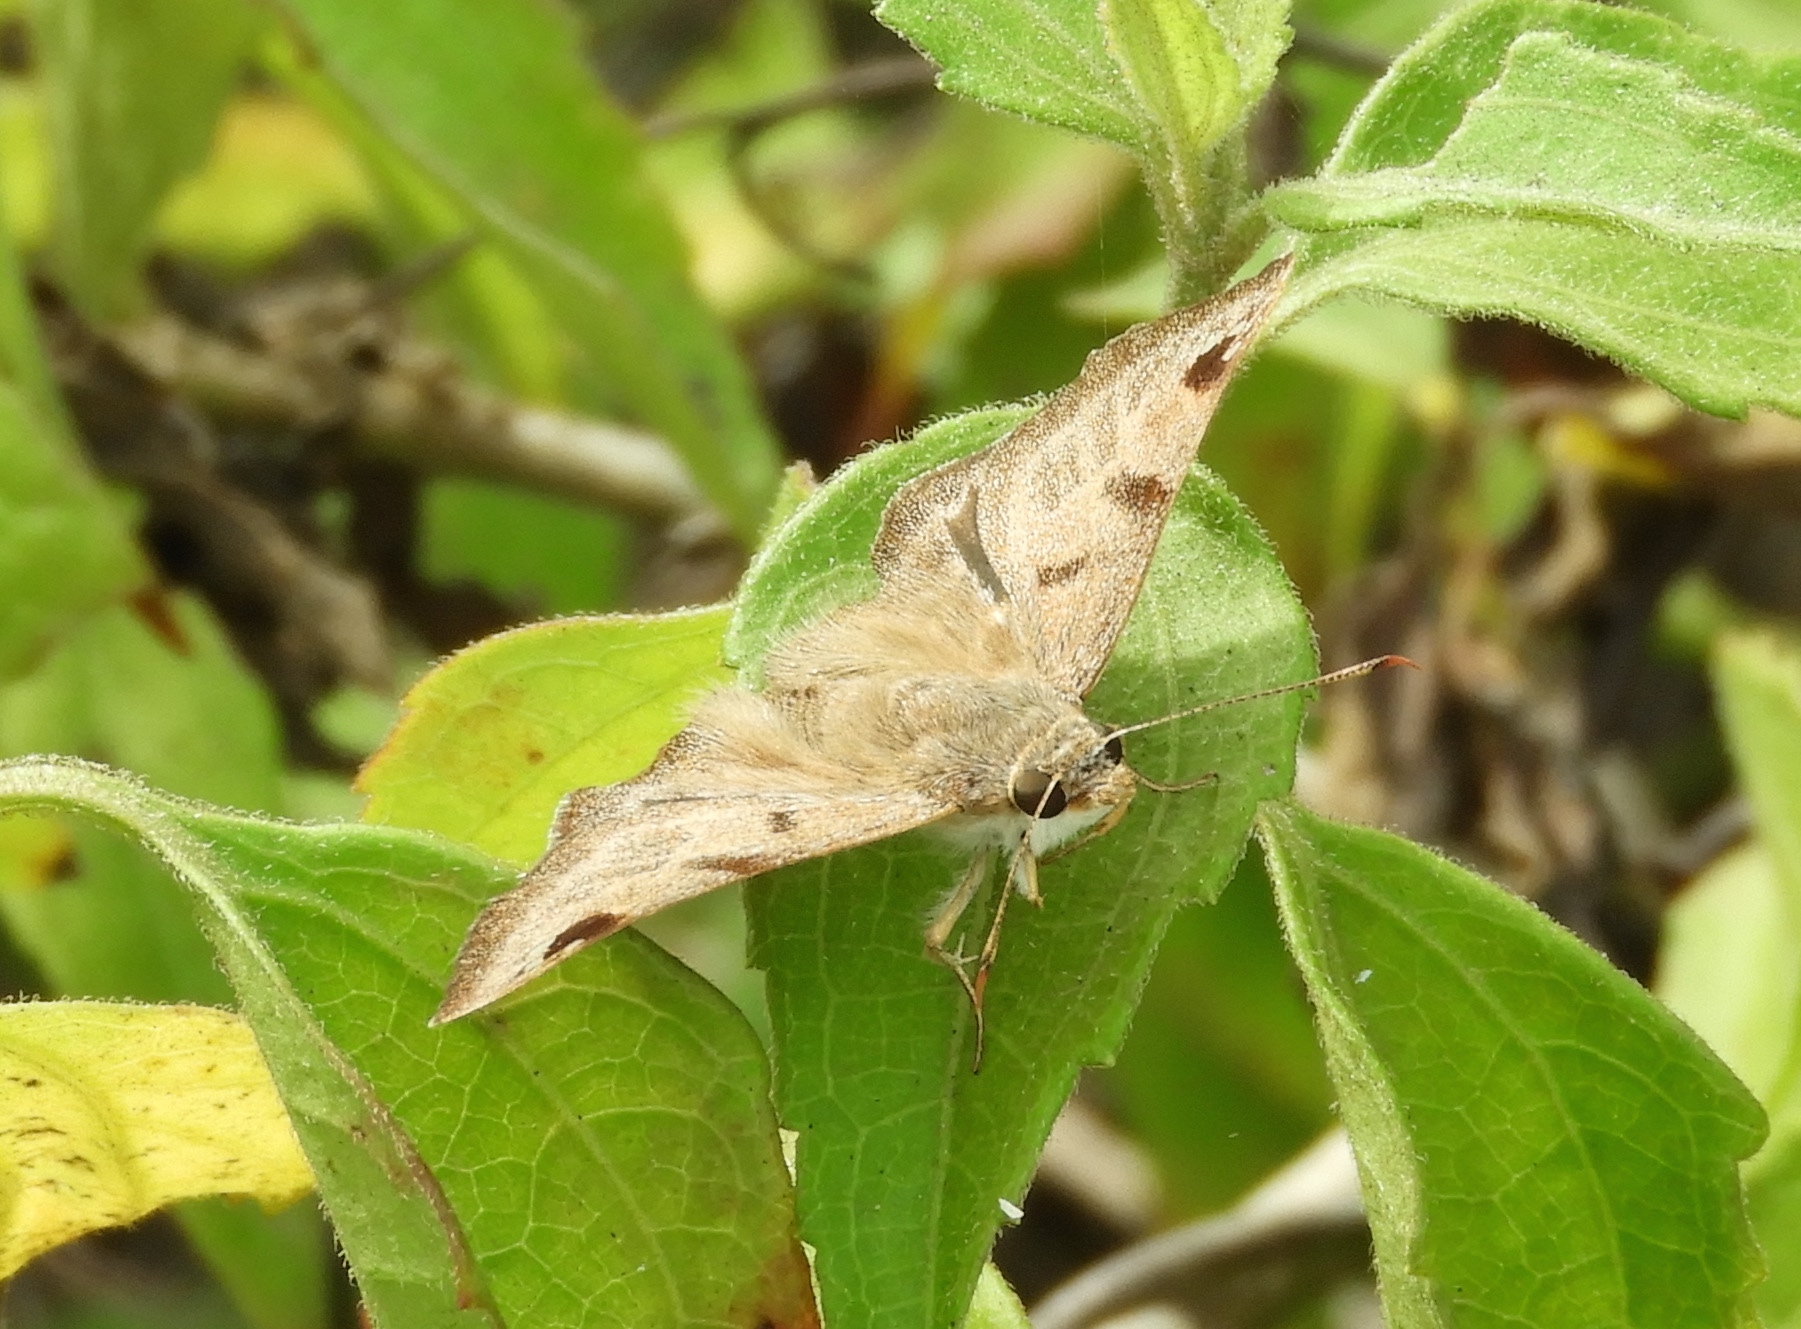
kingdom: Animalia
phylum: Arthropoda
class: Insecta
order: Lepidoptera
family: Hesperiidae
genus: Arteurotia
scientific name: Arteurotia tractipennis
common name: Starred skipper
